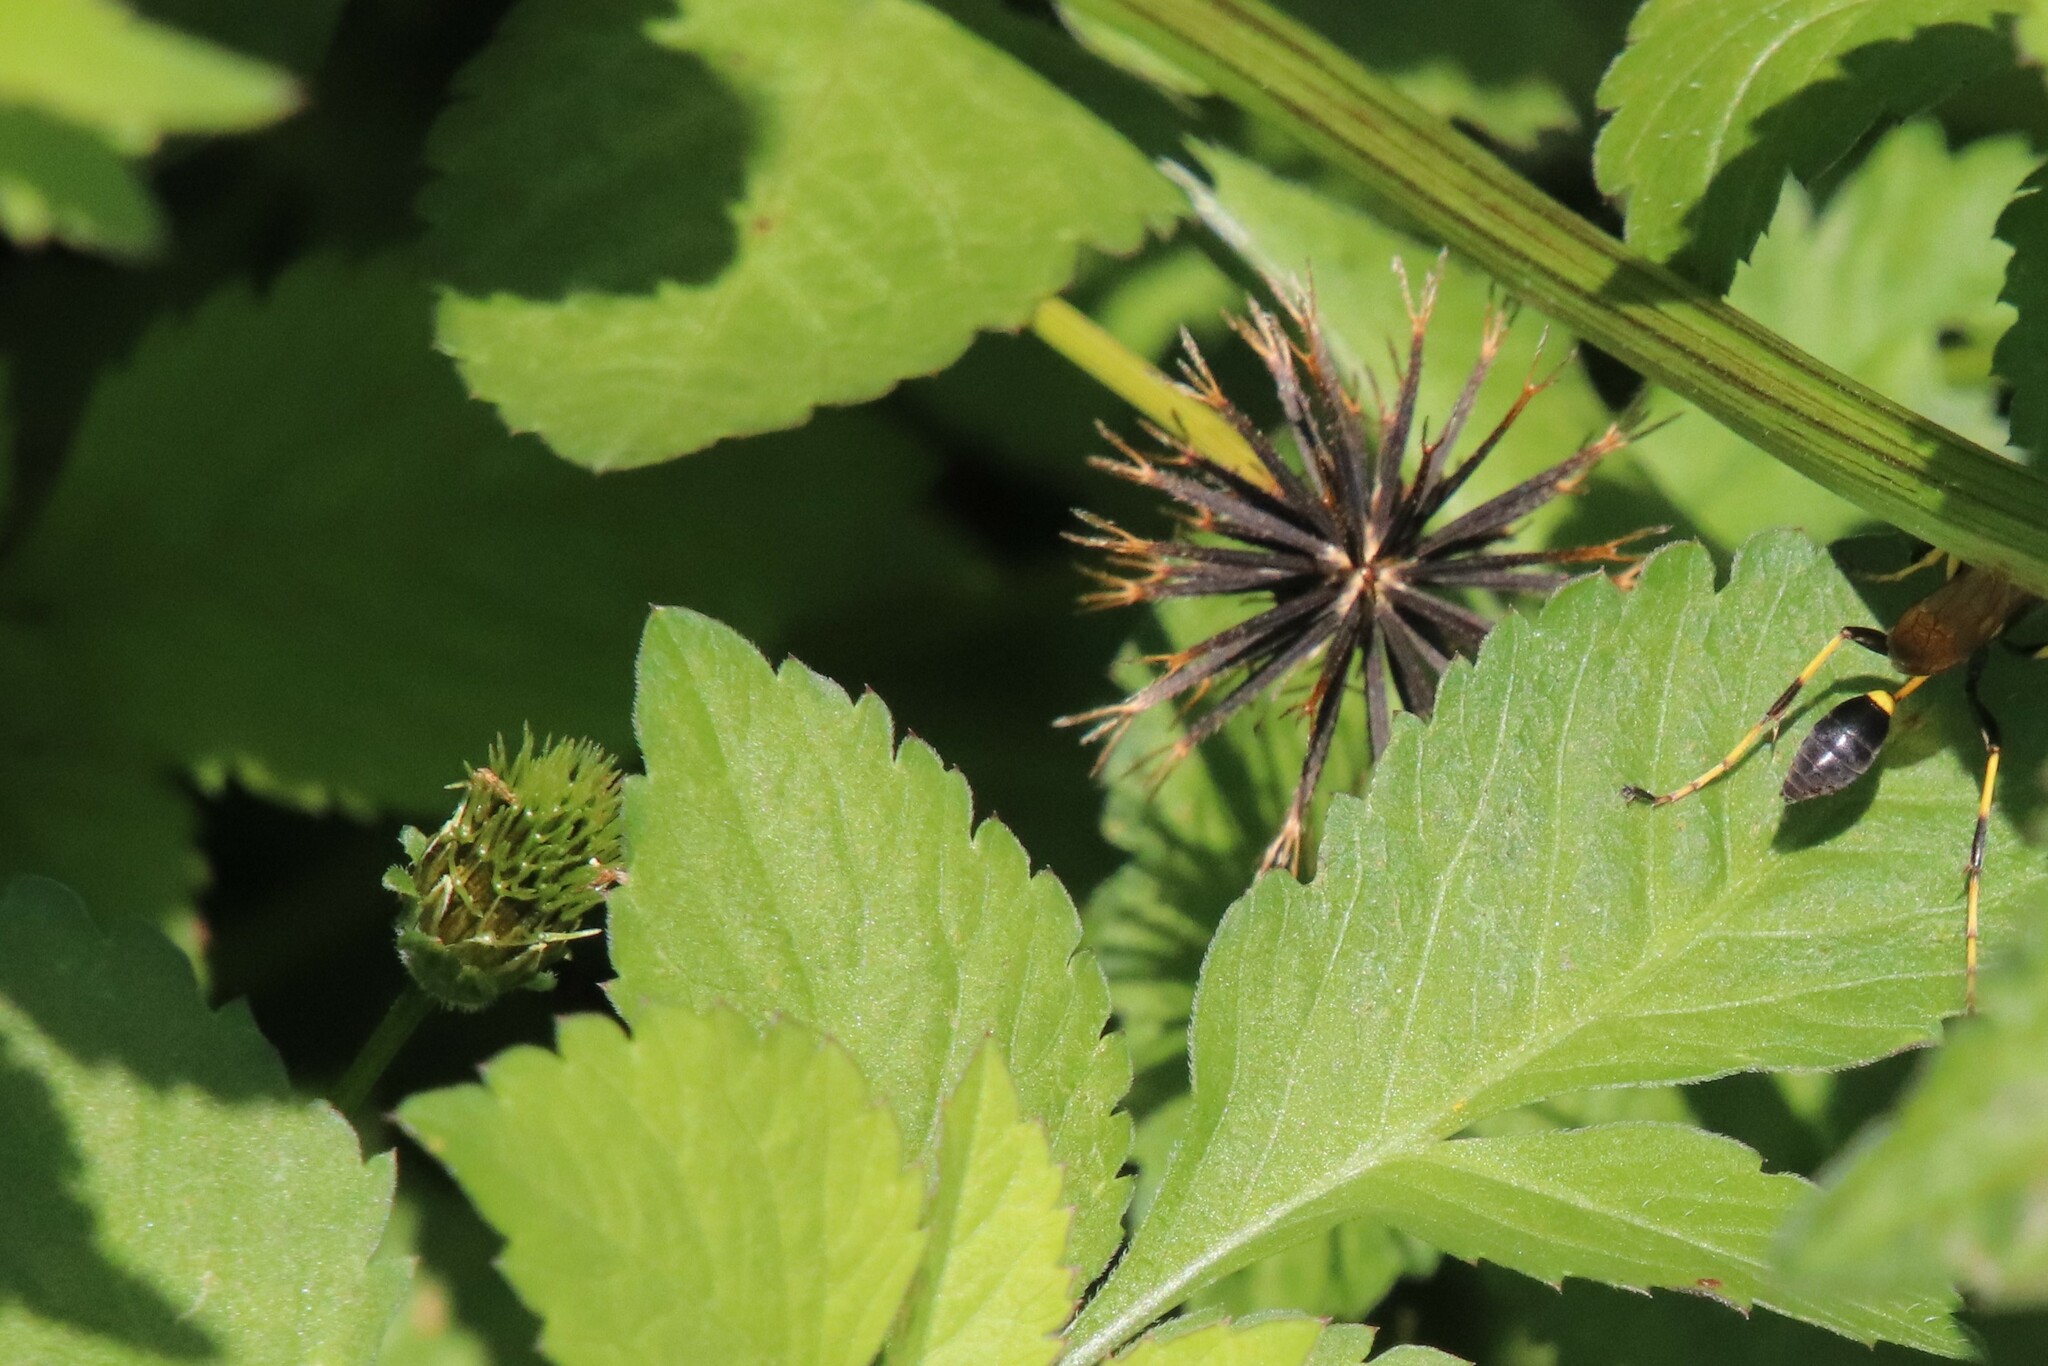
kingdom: Plantae
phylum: Tracheophyta
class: Magnoliopsida
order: Asterales
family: Asteraceae
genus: Bidens
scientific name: Bidens pilosa
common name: Black-jack
